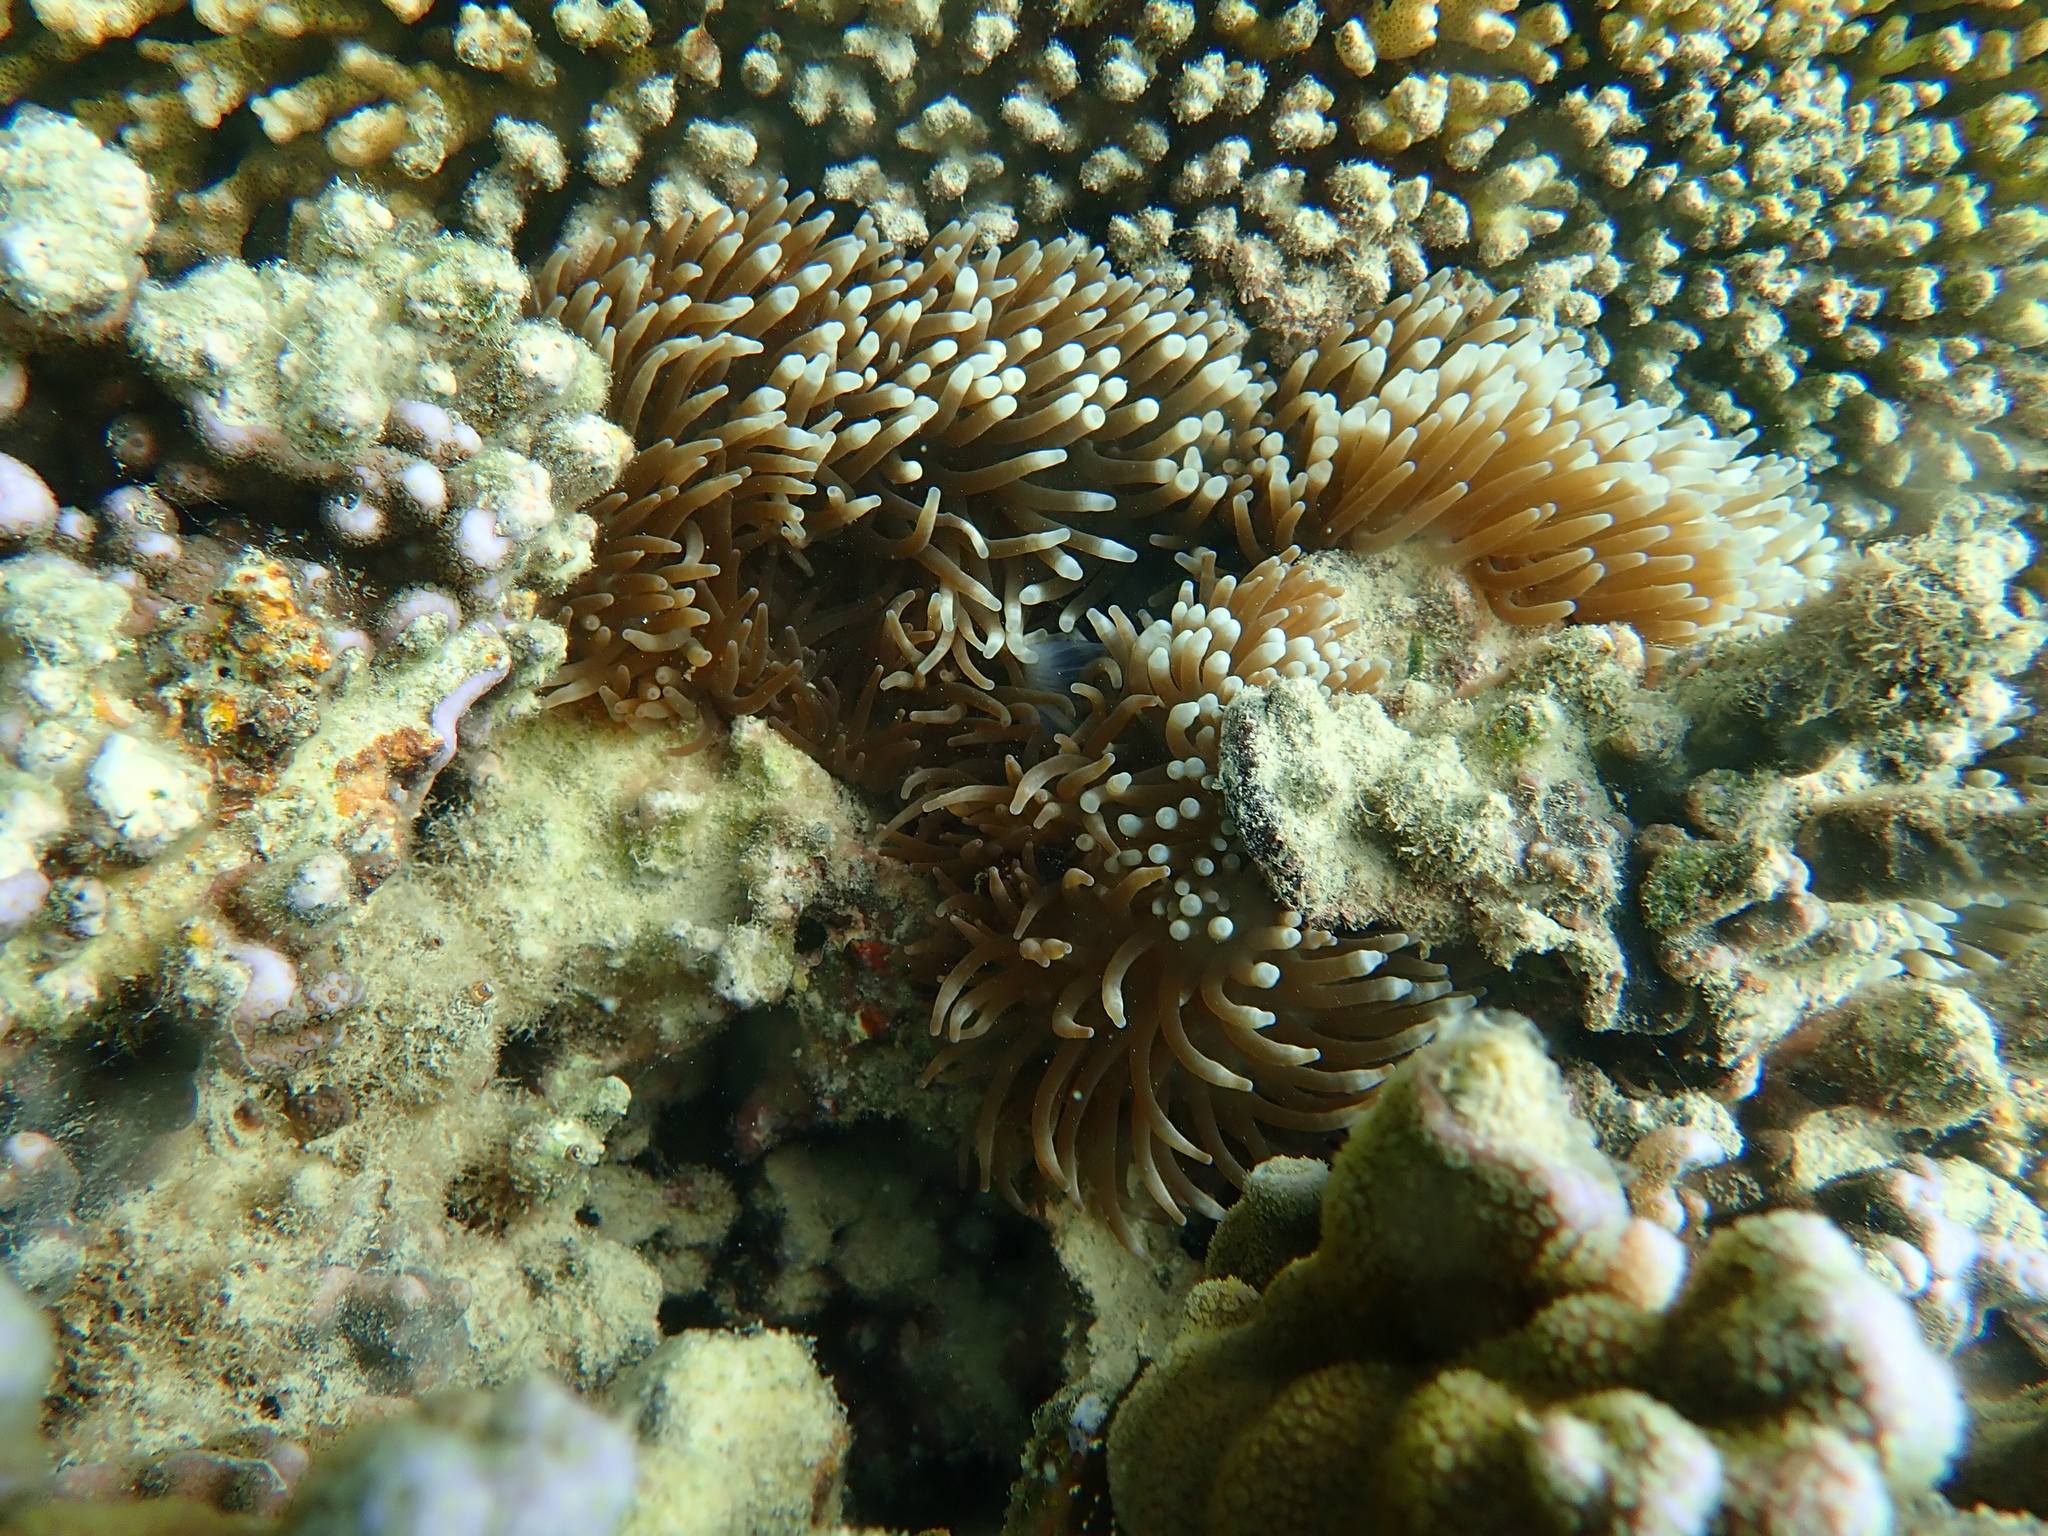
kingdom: Animalia
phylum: Cnidaria
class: Anthozoa
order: Actiniaria
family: Actiniidae
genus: Entacmaea
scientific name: Entacmaea quadricolor
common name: Bulb tentacle sea anemone
